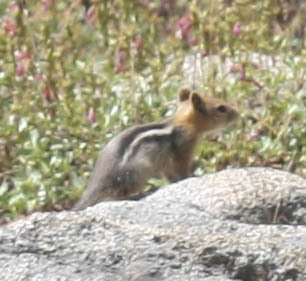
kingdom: Animalia
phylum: Chordata
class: Mammalia
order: Rodentia
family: Sciuridae
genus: Callospermophilus
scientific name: Callospermophilus lateralis
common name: Golden-mantled ground squirrel
